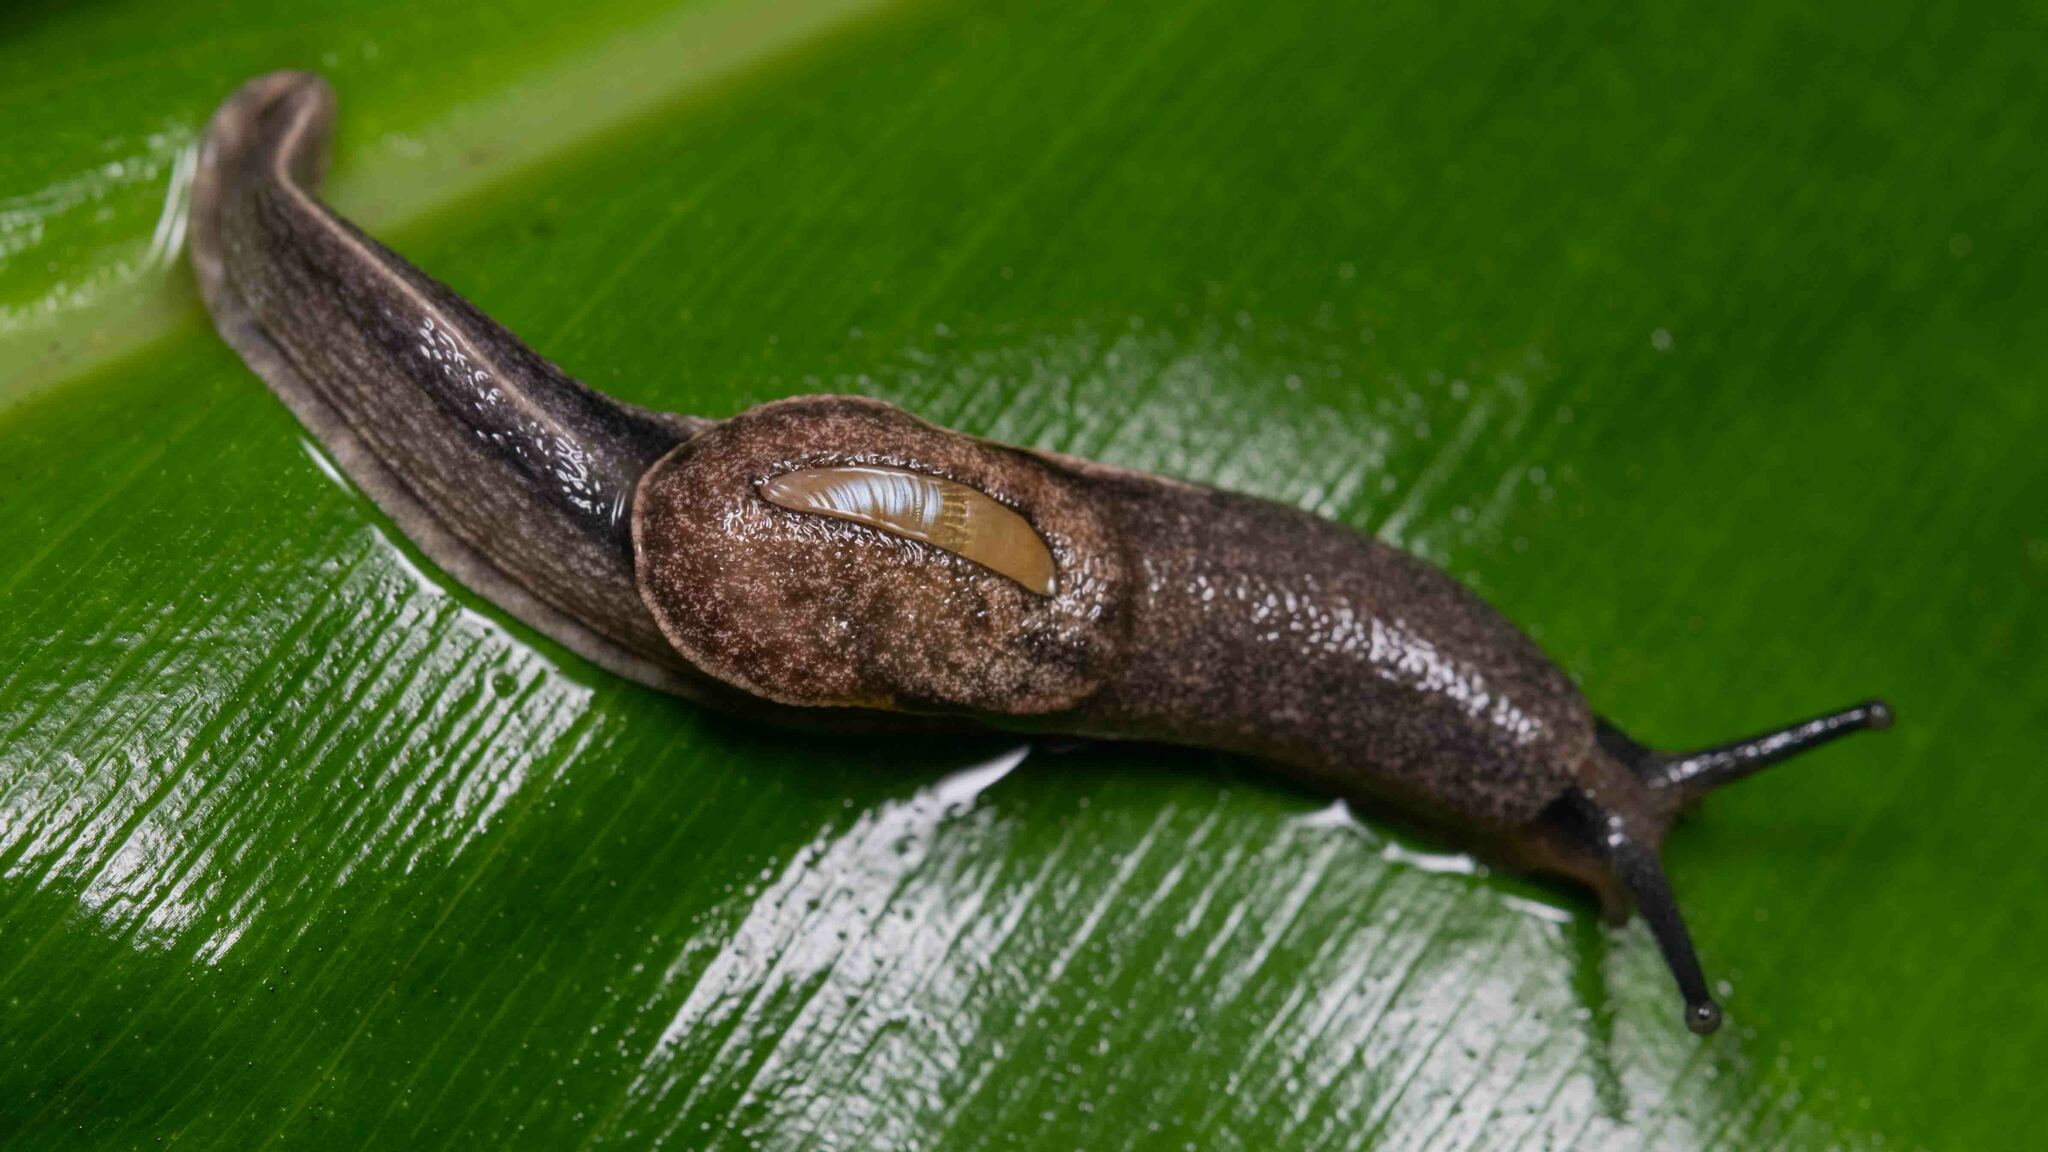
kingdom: Animalia
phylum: Mollusca
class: Gastropoda
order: Stylommatophora
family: Ariophantidae
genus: Parmarion
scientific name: Parmarion martensi
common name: Semi-slug
